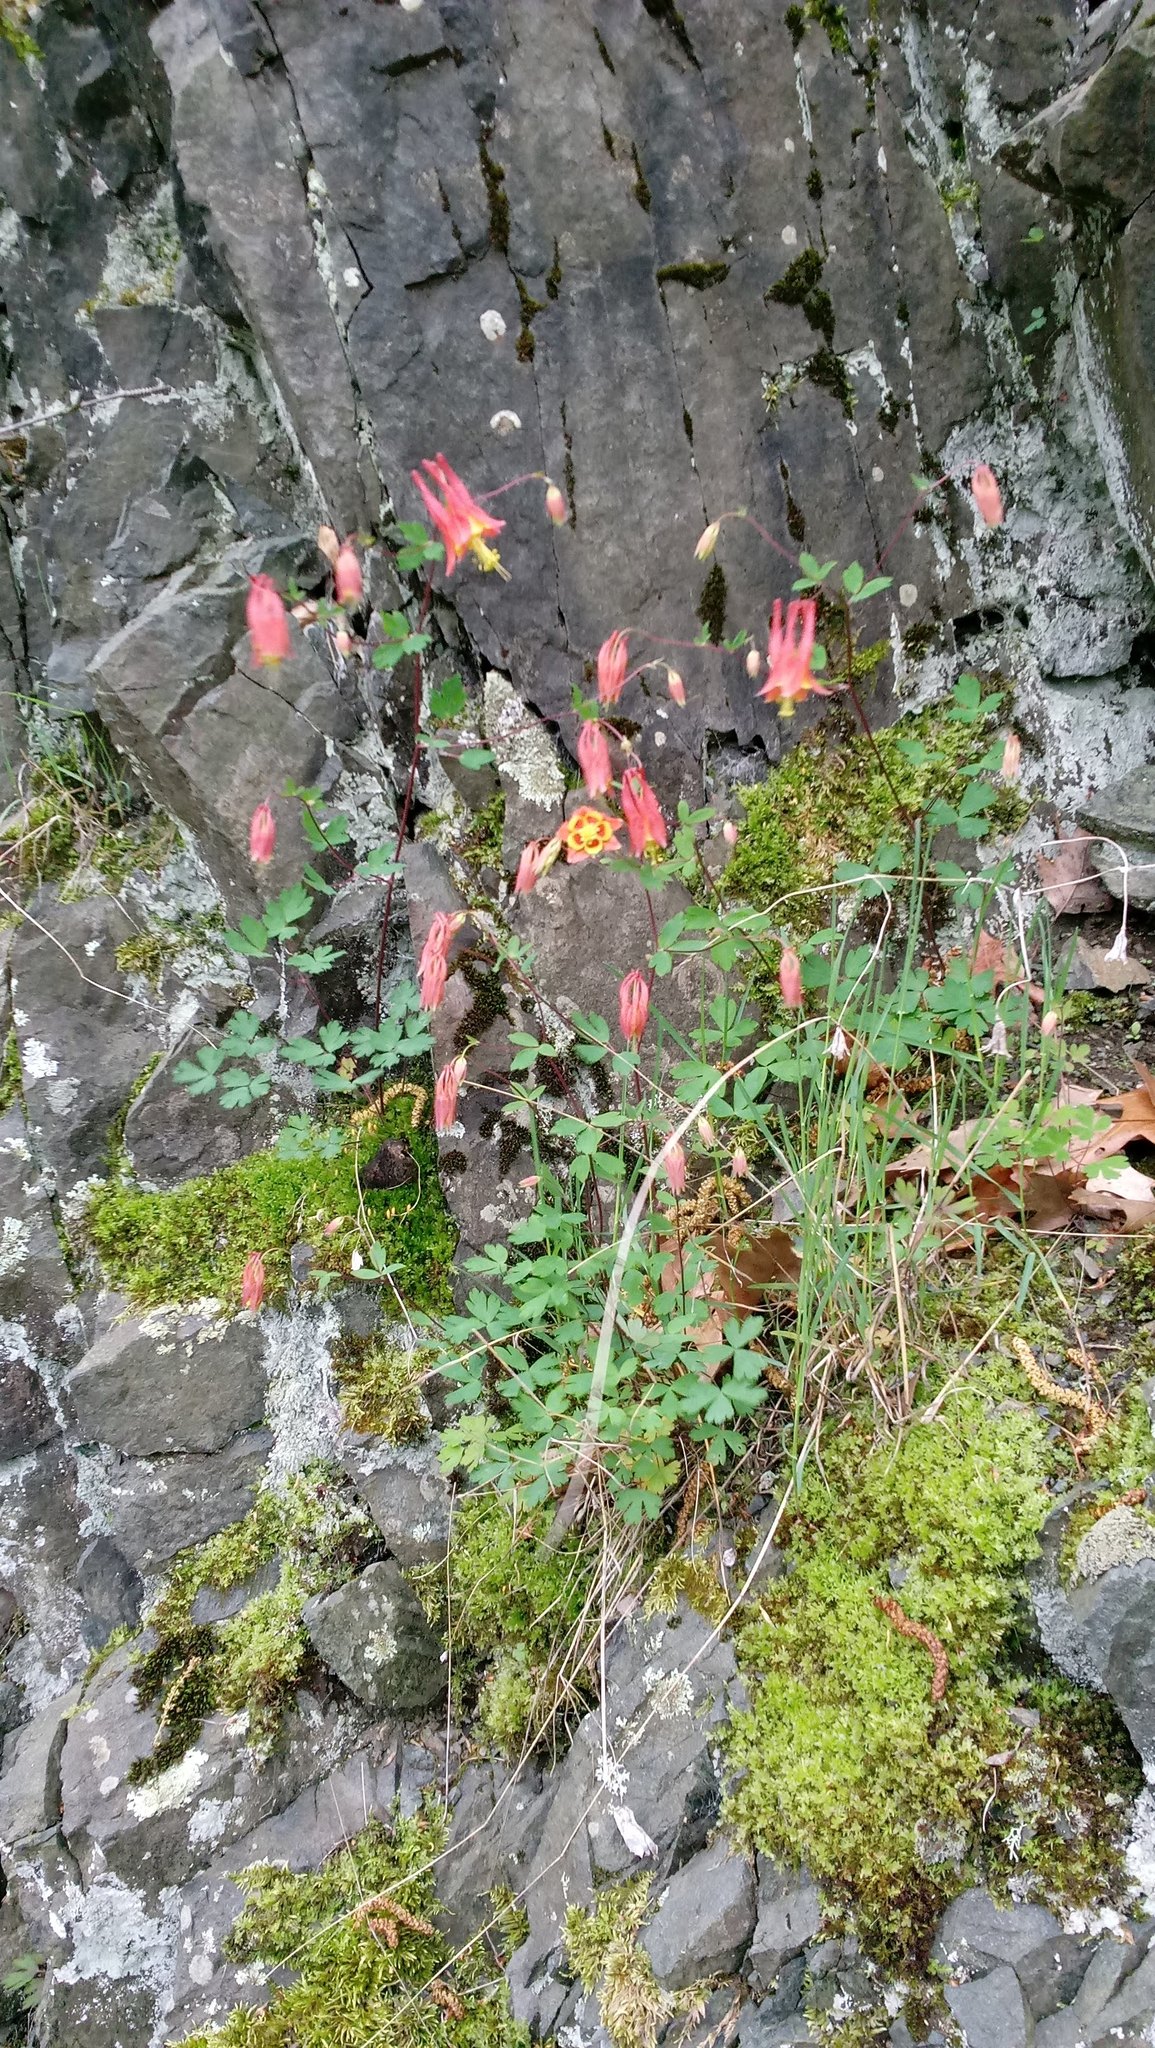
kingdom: Plantae
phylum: Tracheophyta
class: Magnoliopsida
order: Ranunculales
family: Ranunculaceae
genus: Aquilegia
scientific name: Aquilegia canadensis
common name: American columbine
